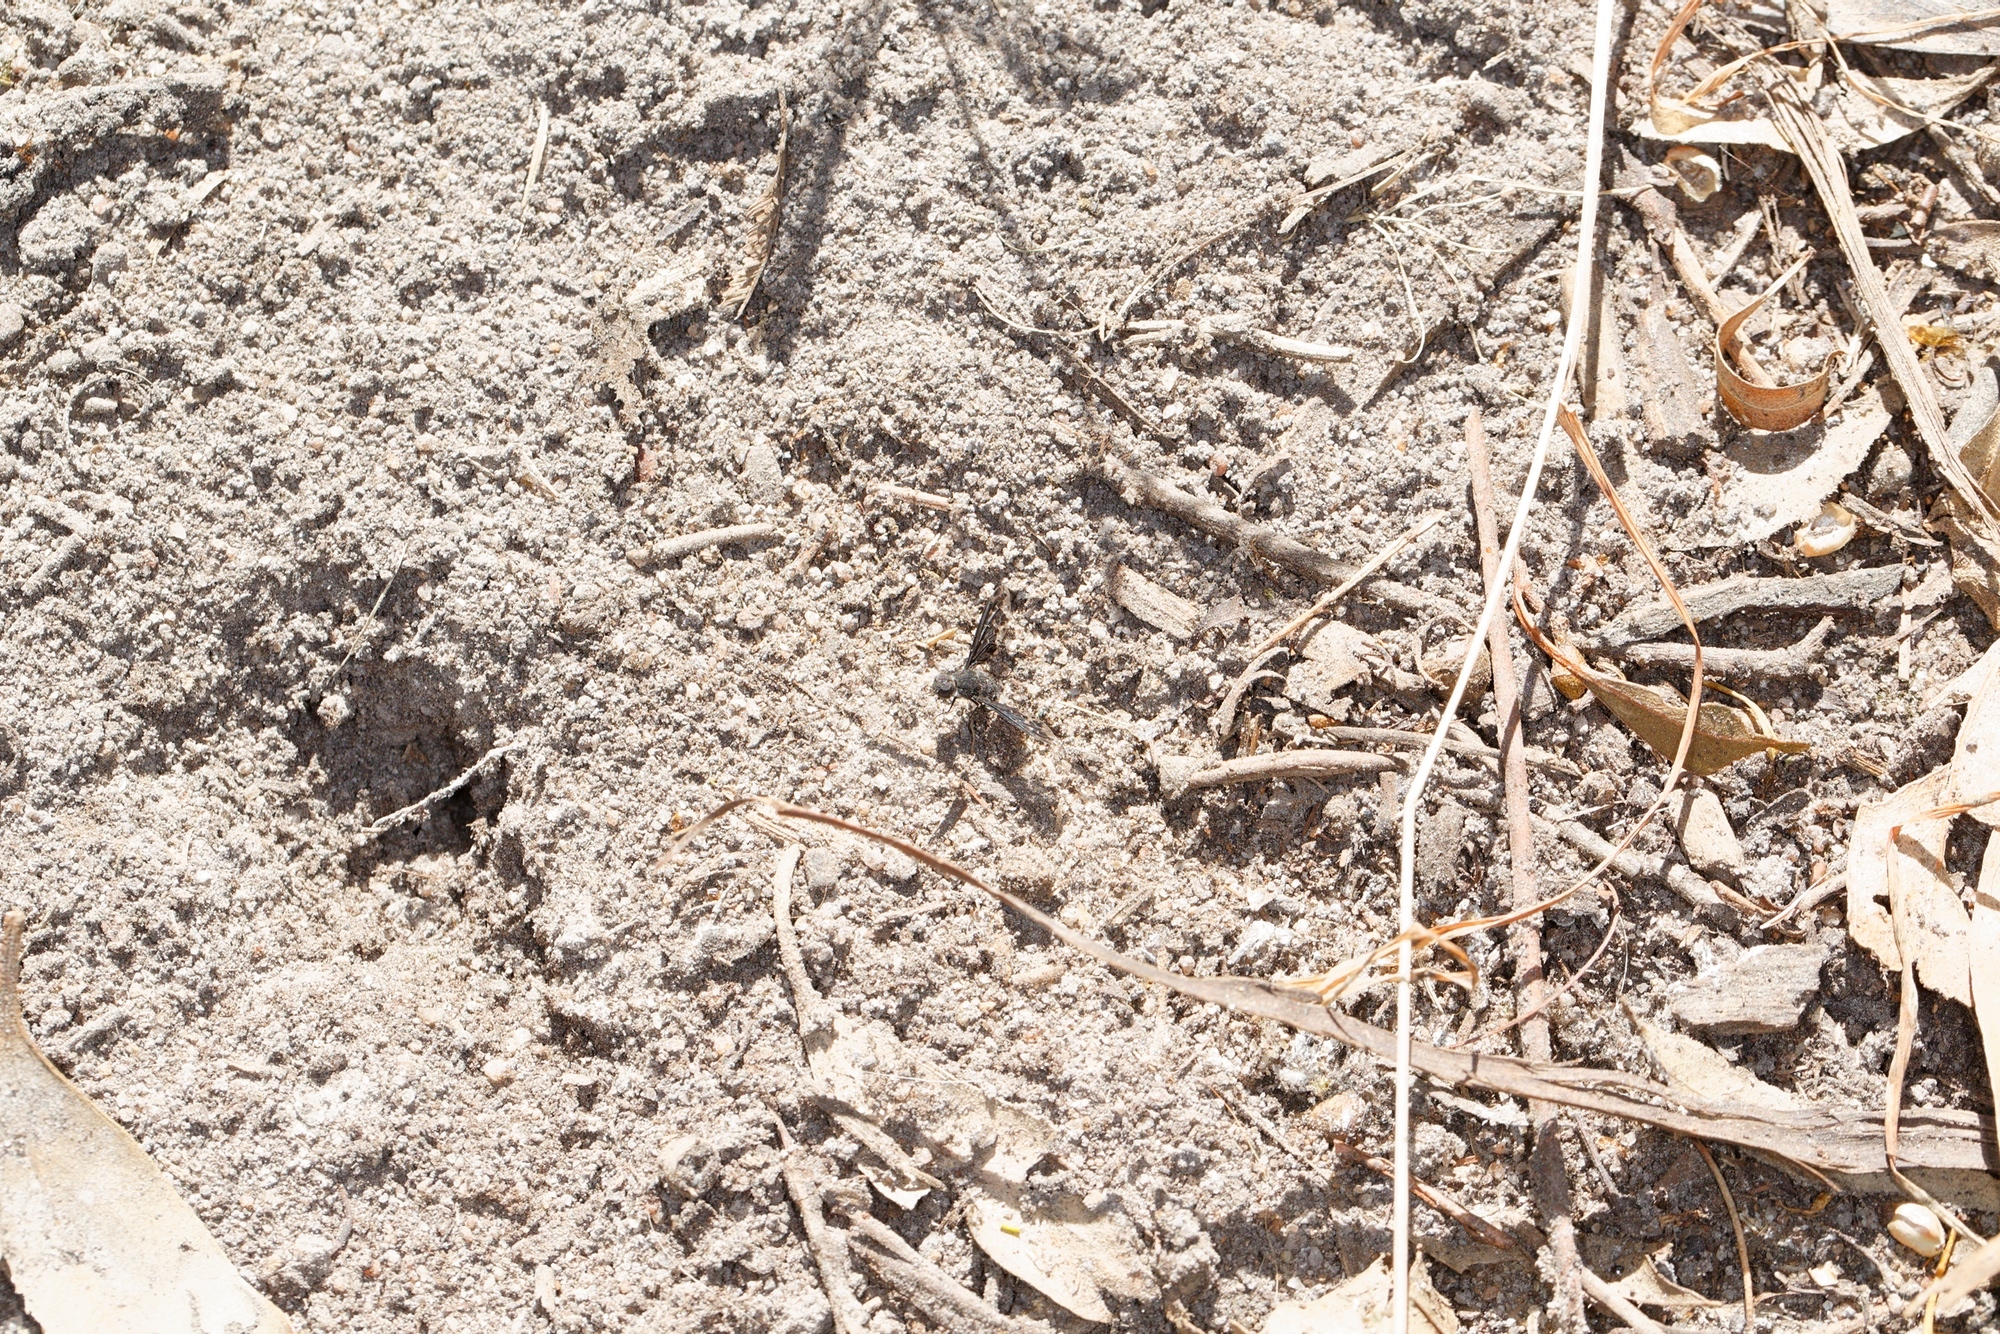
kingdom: Animalia
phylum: Arthropoda
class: Insecta
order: Diptera
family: Bombyliidae
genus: Anthrax
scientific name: Anthrax maculata
